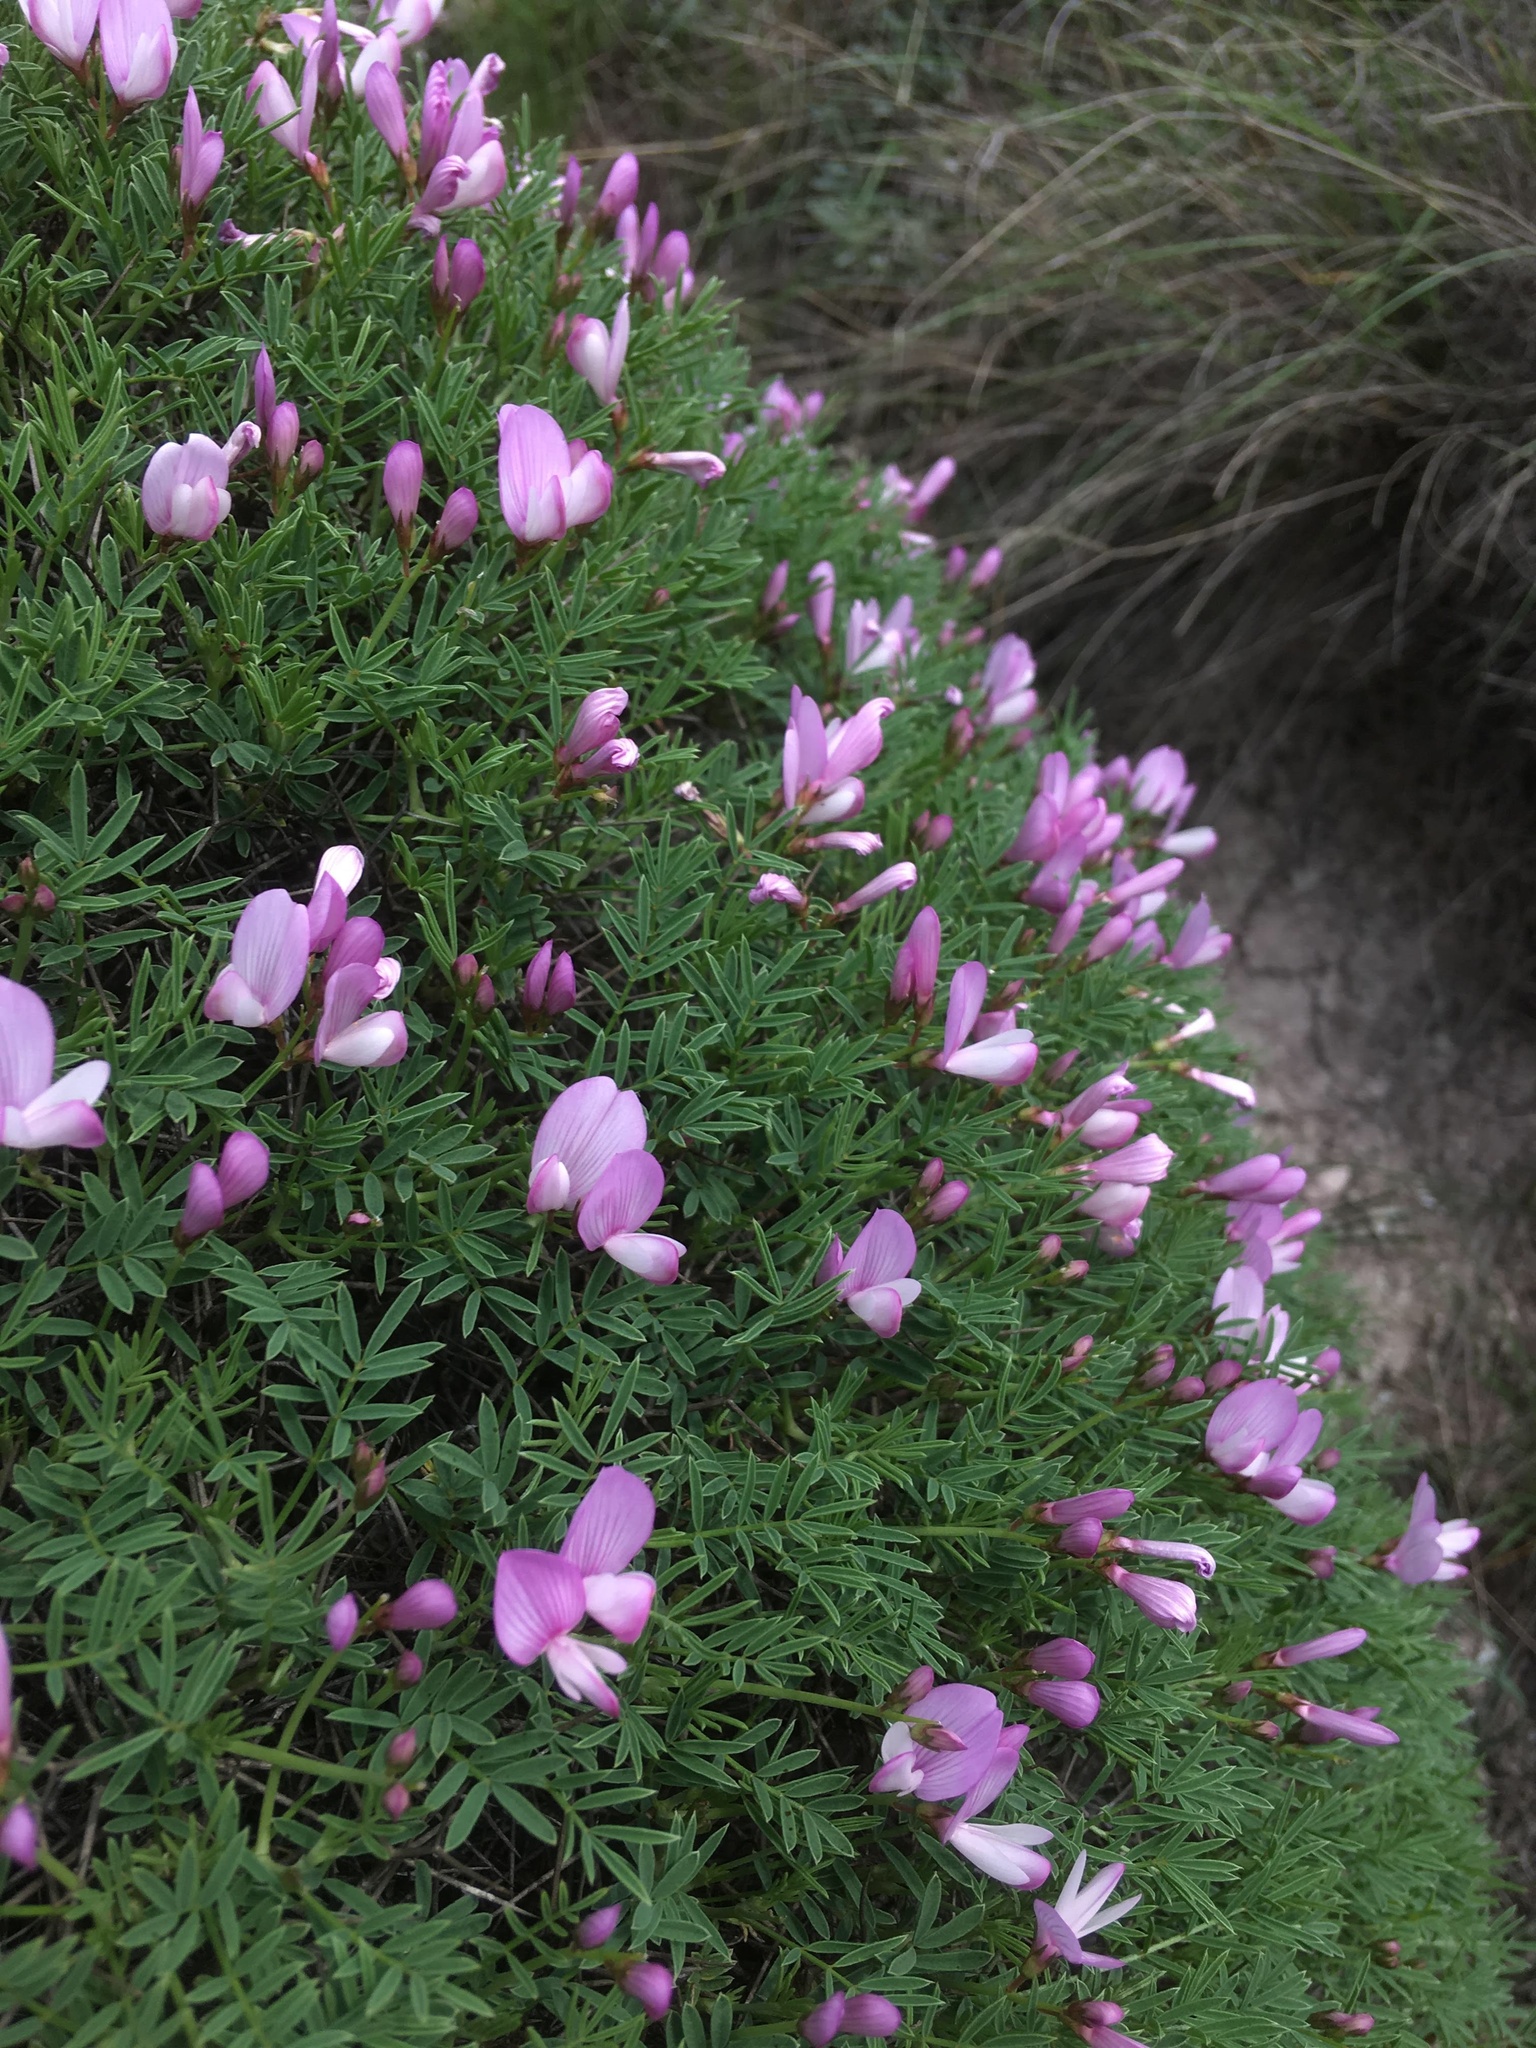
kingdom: Plantae
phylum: Tracheophyta
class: Magnoliopsida
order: Fabales
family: Fabaceae
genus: Onobrychis
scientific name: Onobrychis cornuta
